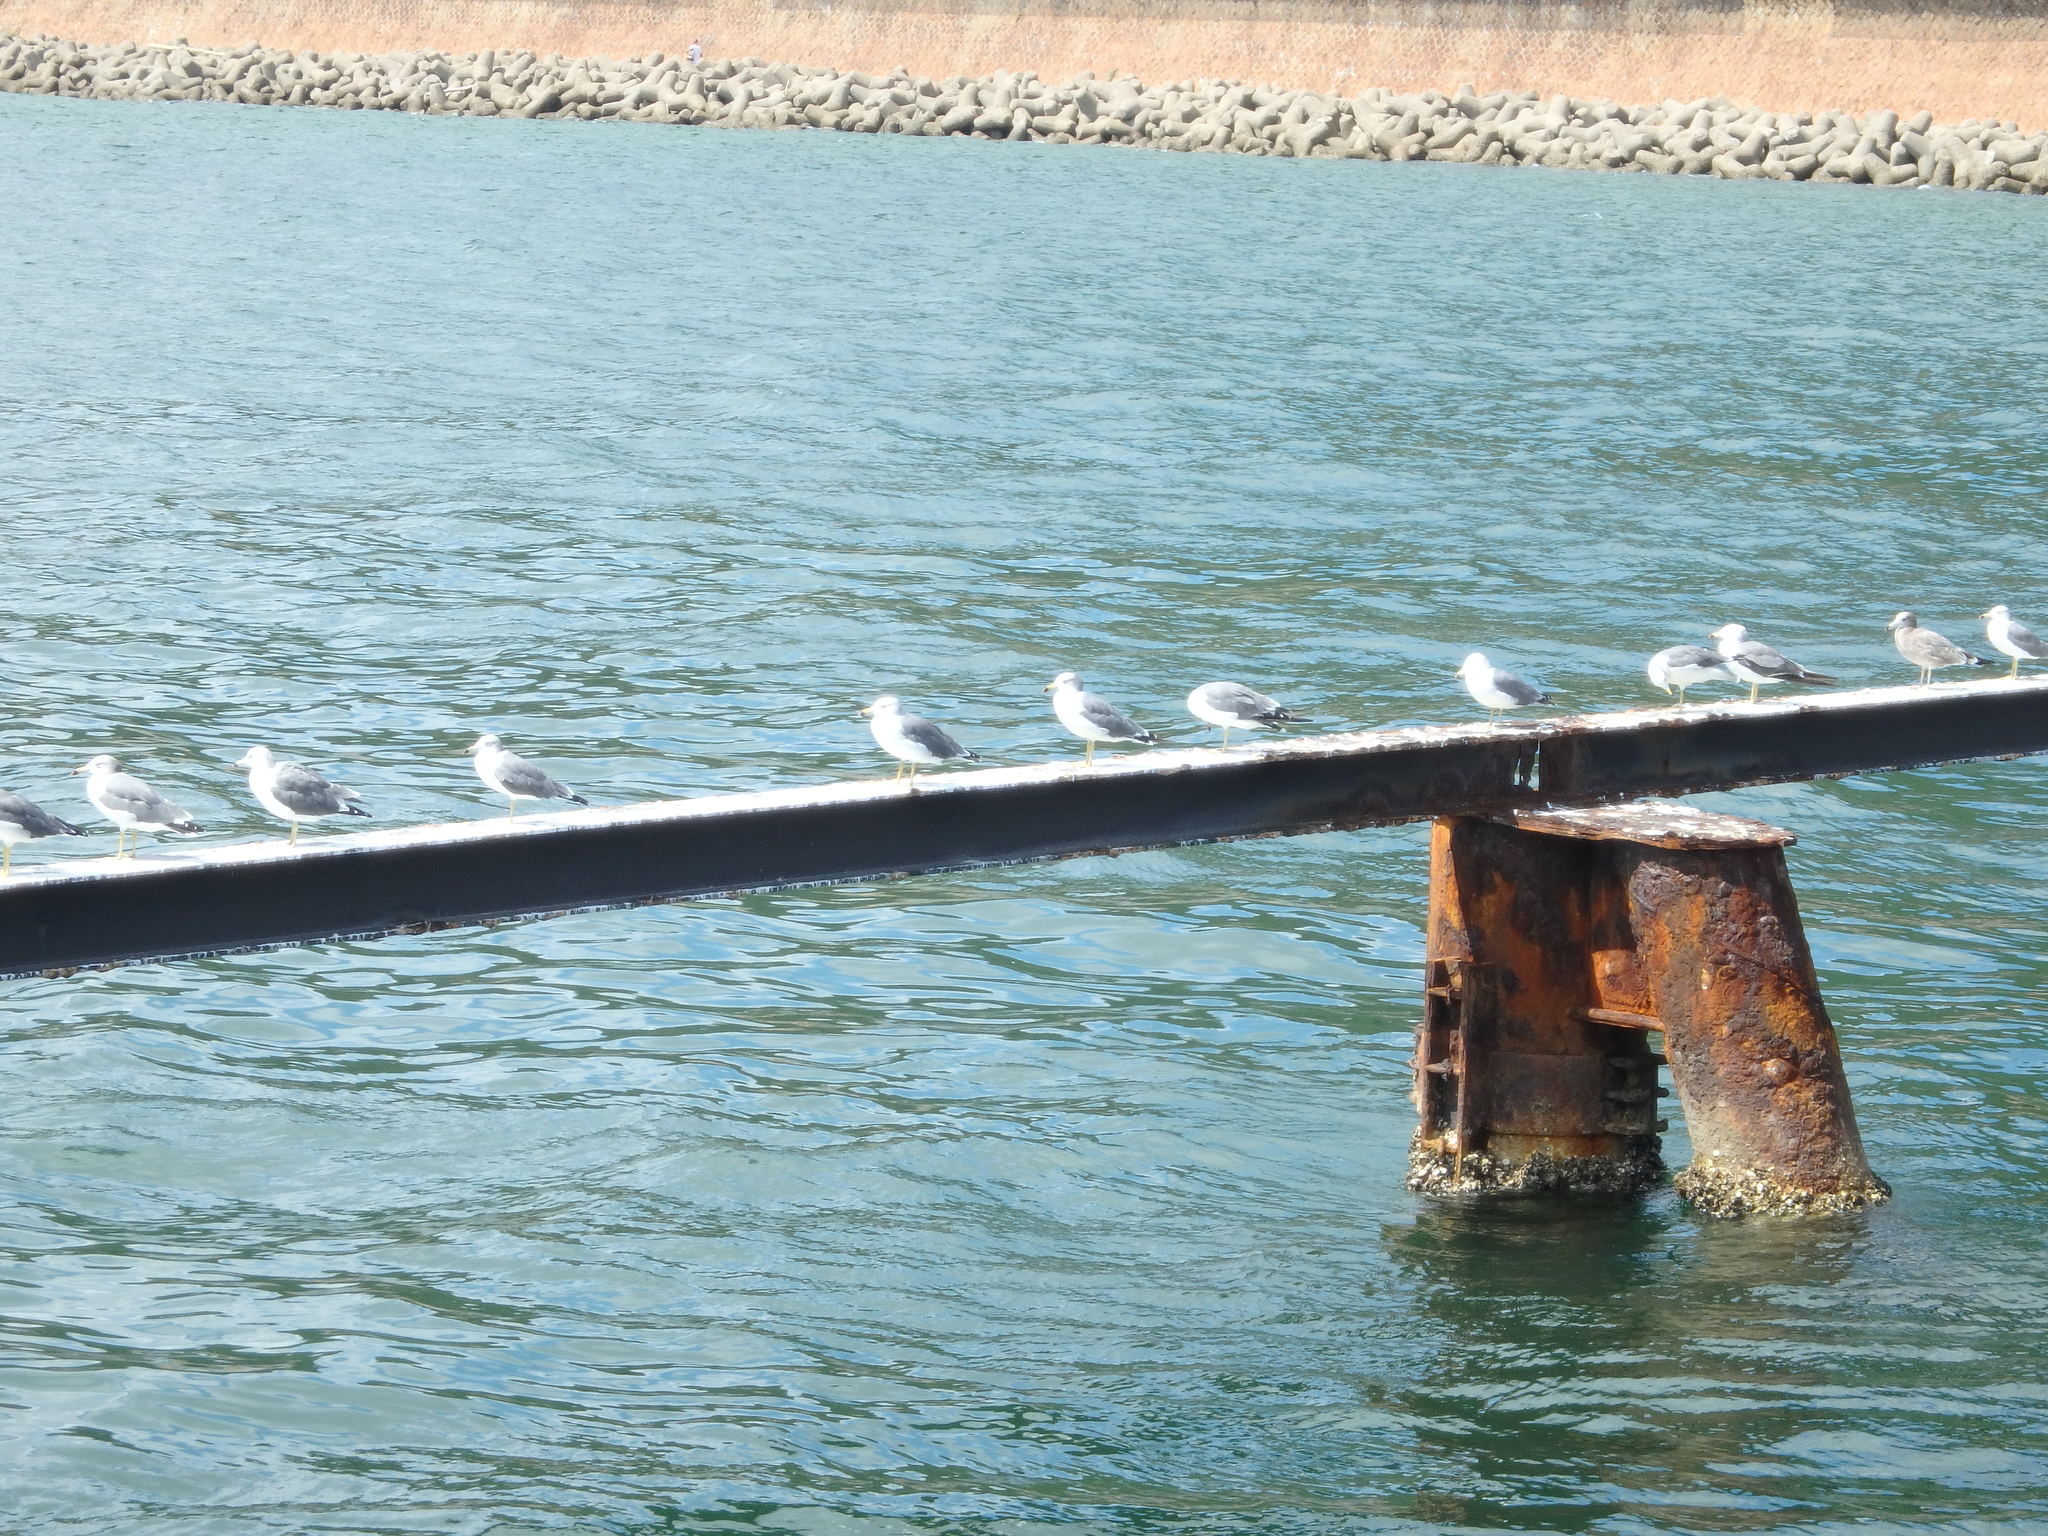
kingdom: Animalia
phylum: Chordata
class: Aves
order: Charadriiformes
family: Laridae
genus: Larus
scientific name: Larus crassirostris
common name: Black-tailed gull
